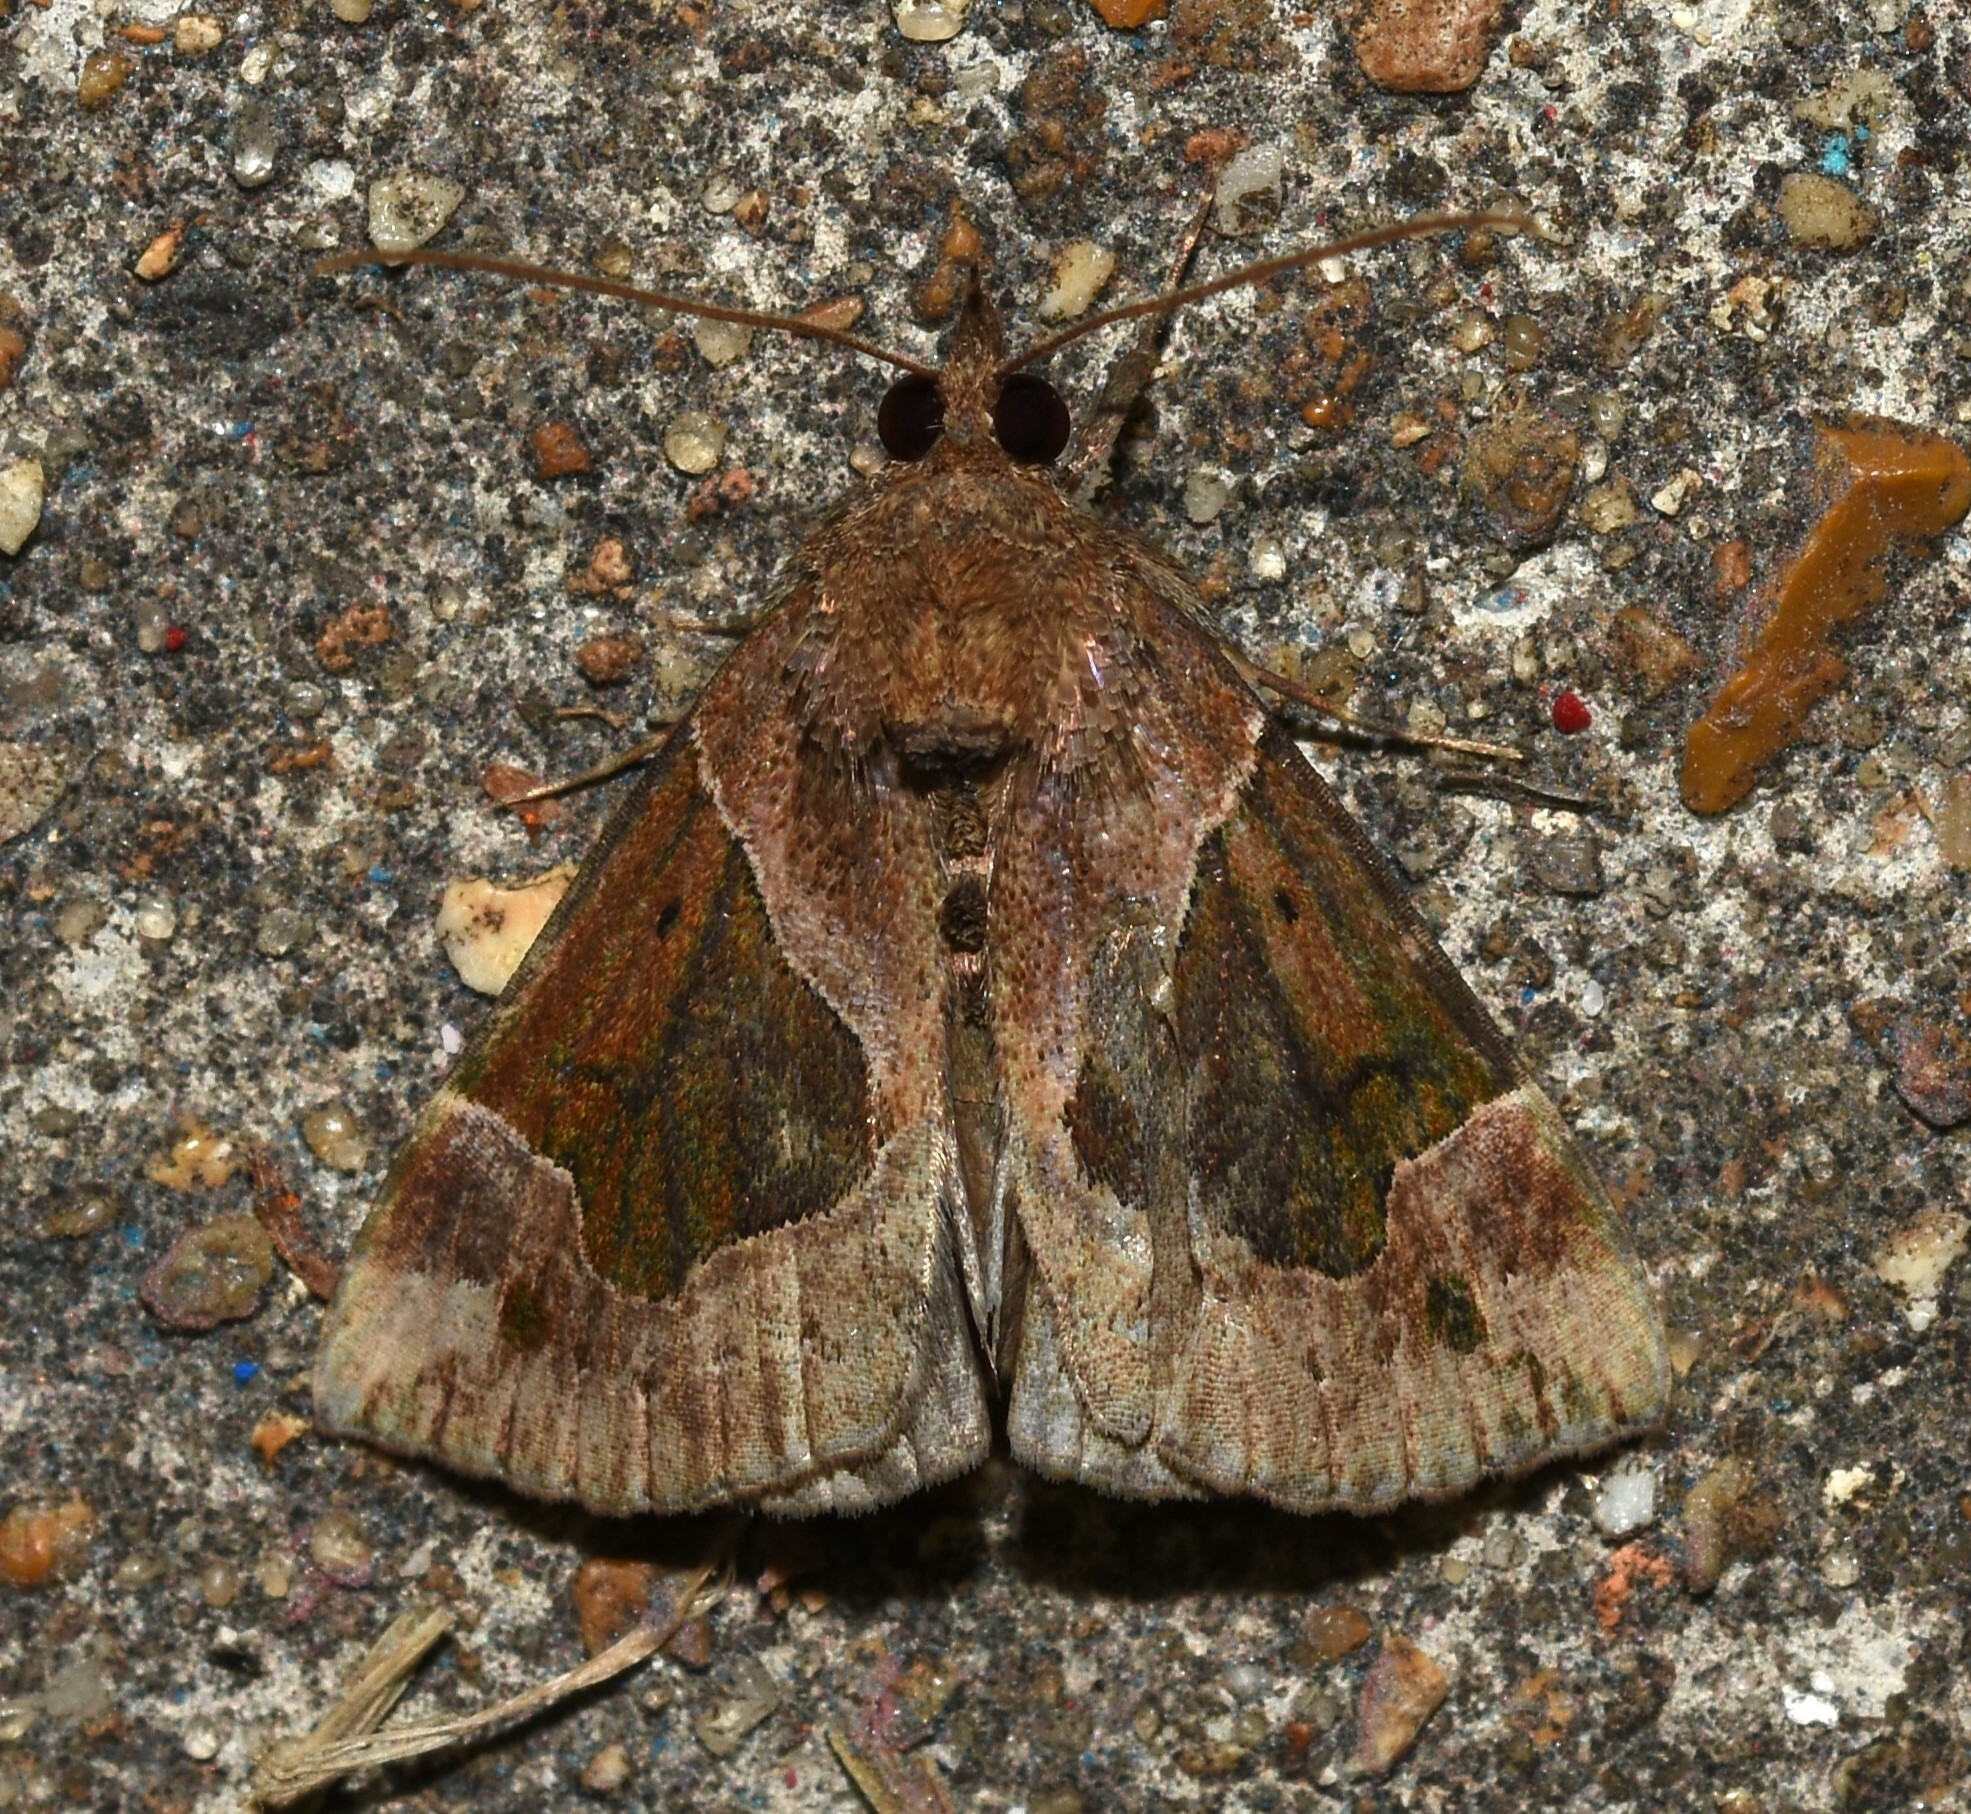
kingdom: Animalia
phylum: Arthropoda
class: Insecta
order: Lepidoptera
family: Erebidae
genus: Hypena
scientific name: Hypena manalis
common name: Flowing-line bomolocha moth
